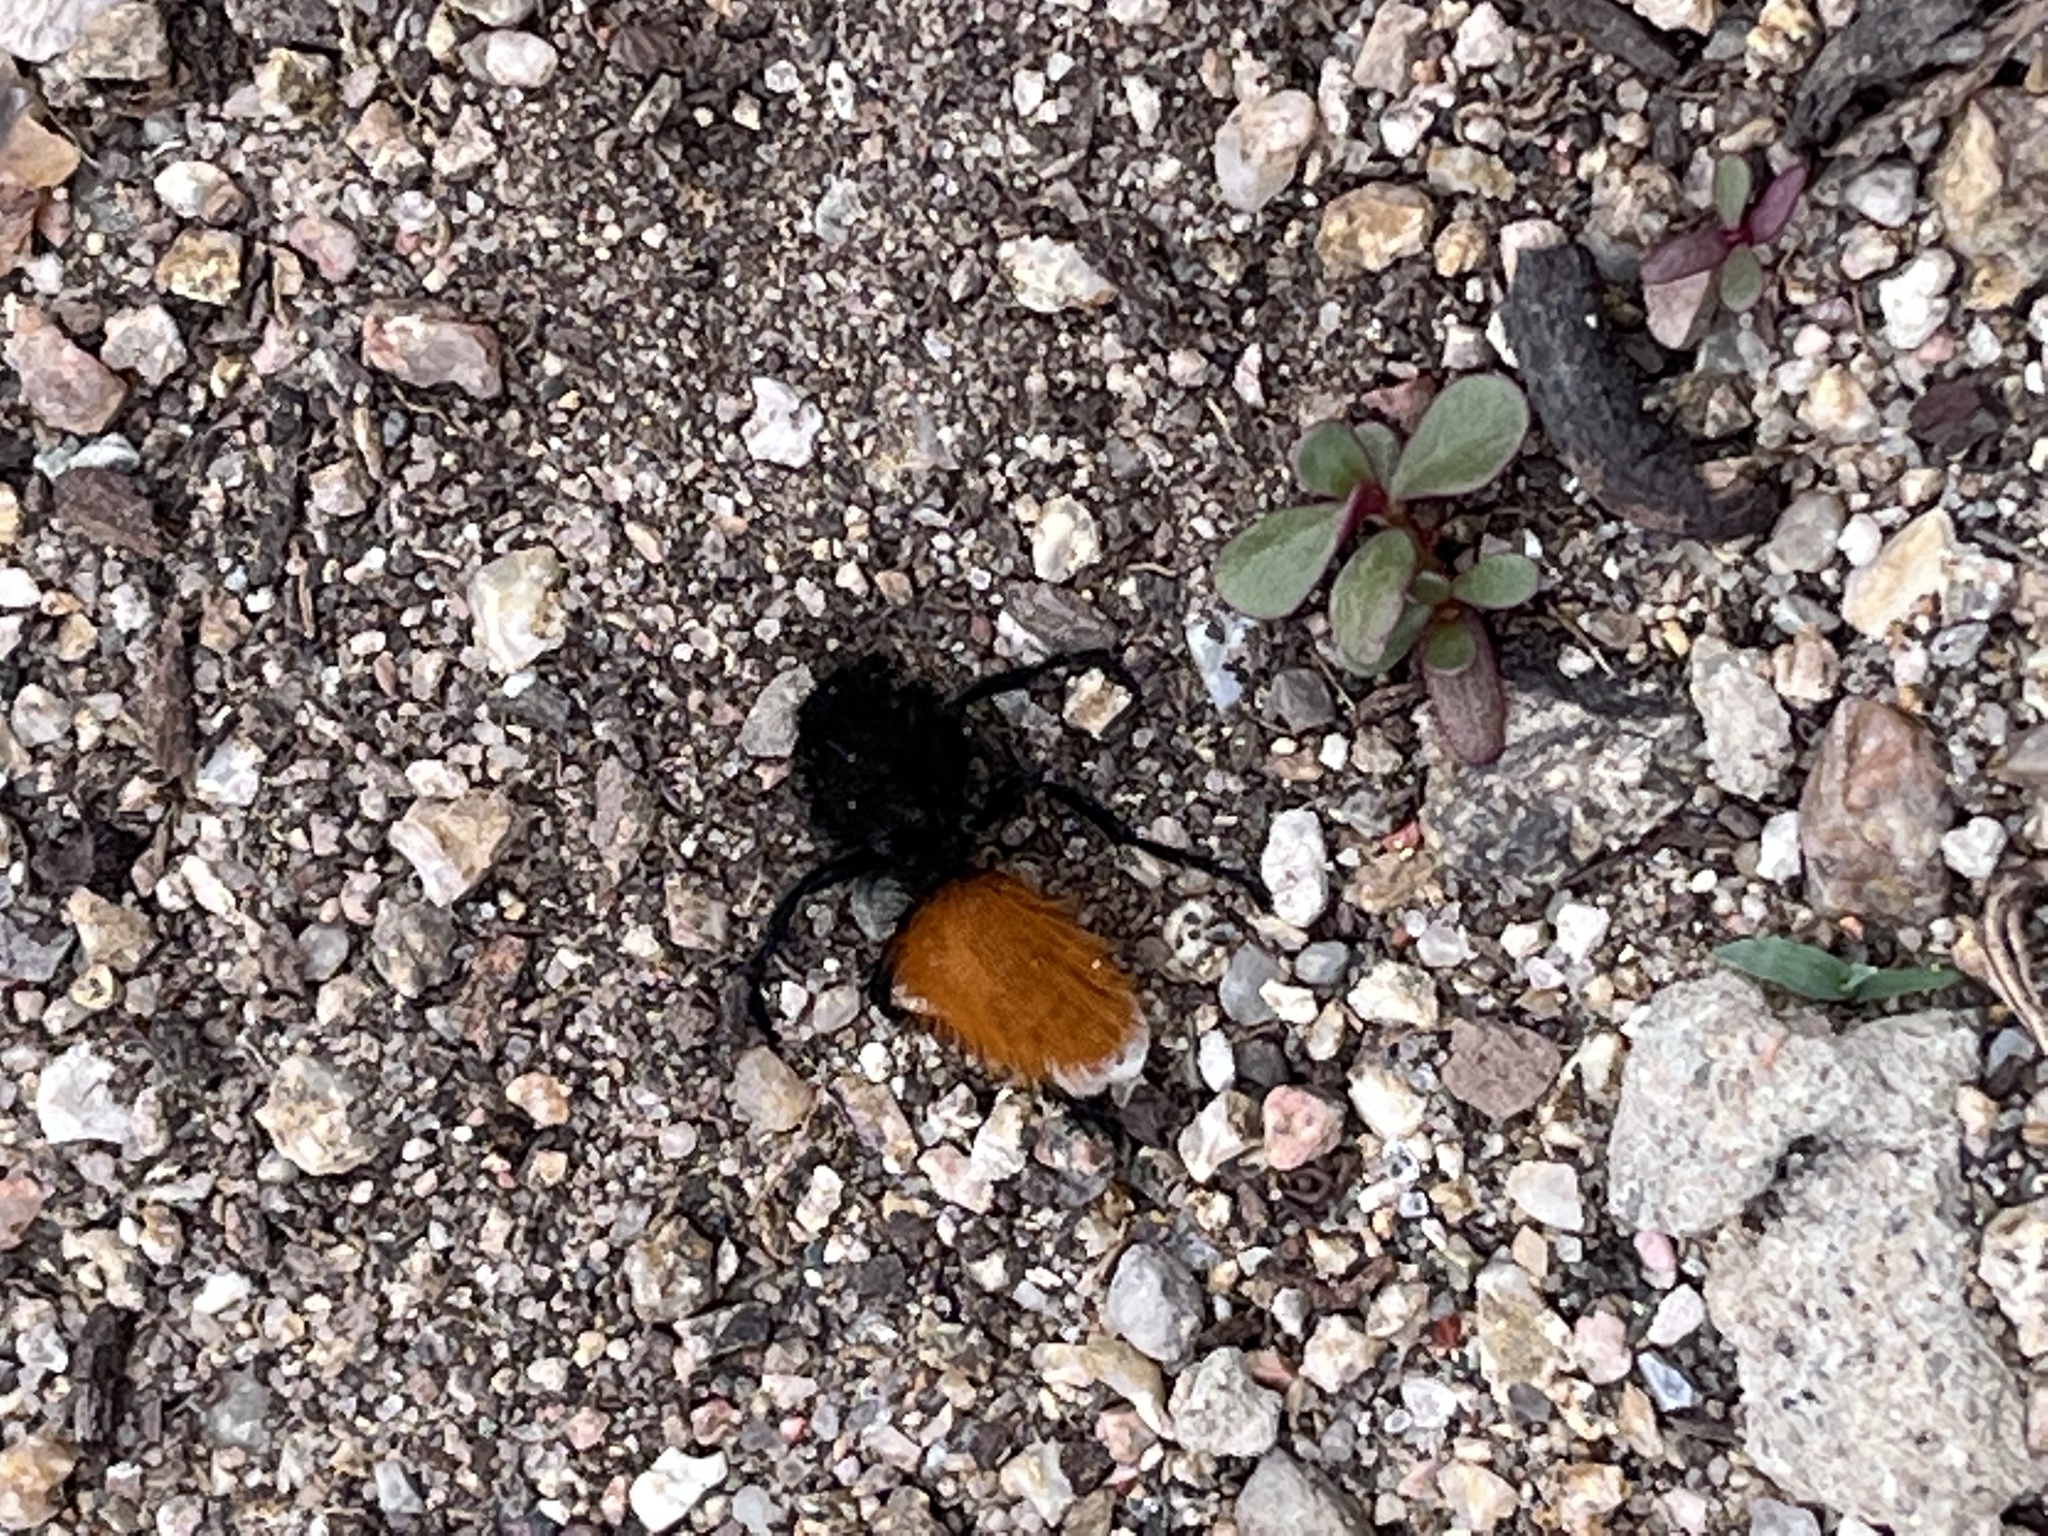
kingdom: Animalia
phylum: Arthropoda
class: Insecta
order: Hymenoptera
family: Mutillidae
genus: Dasymutilla
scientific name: Dasymutilla
